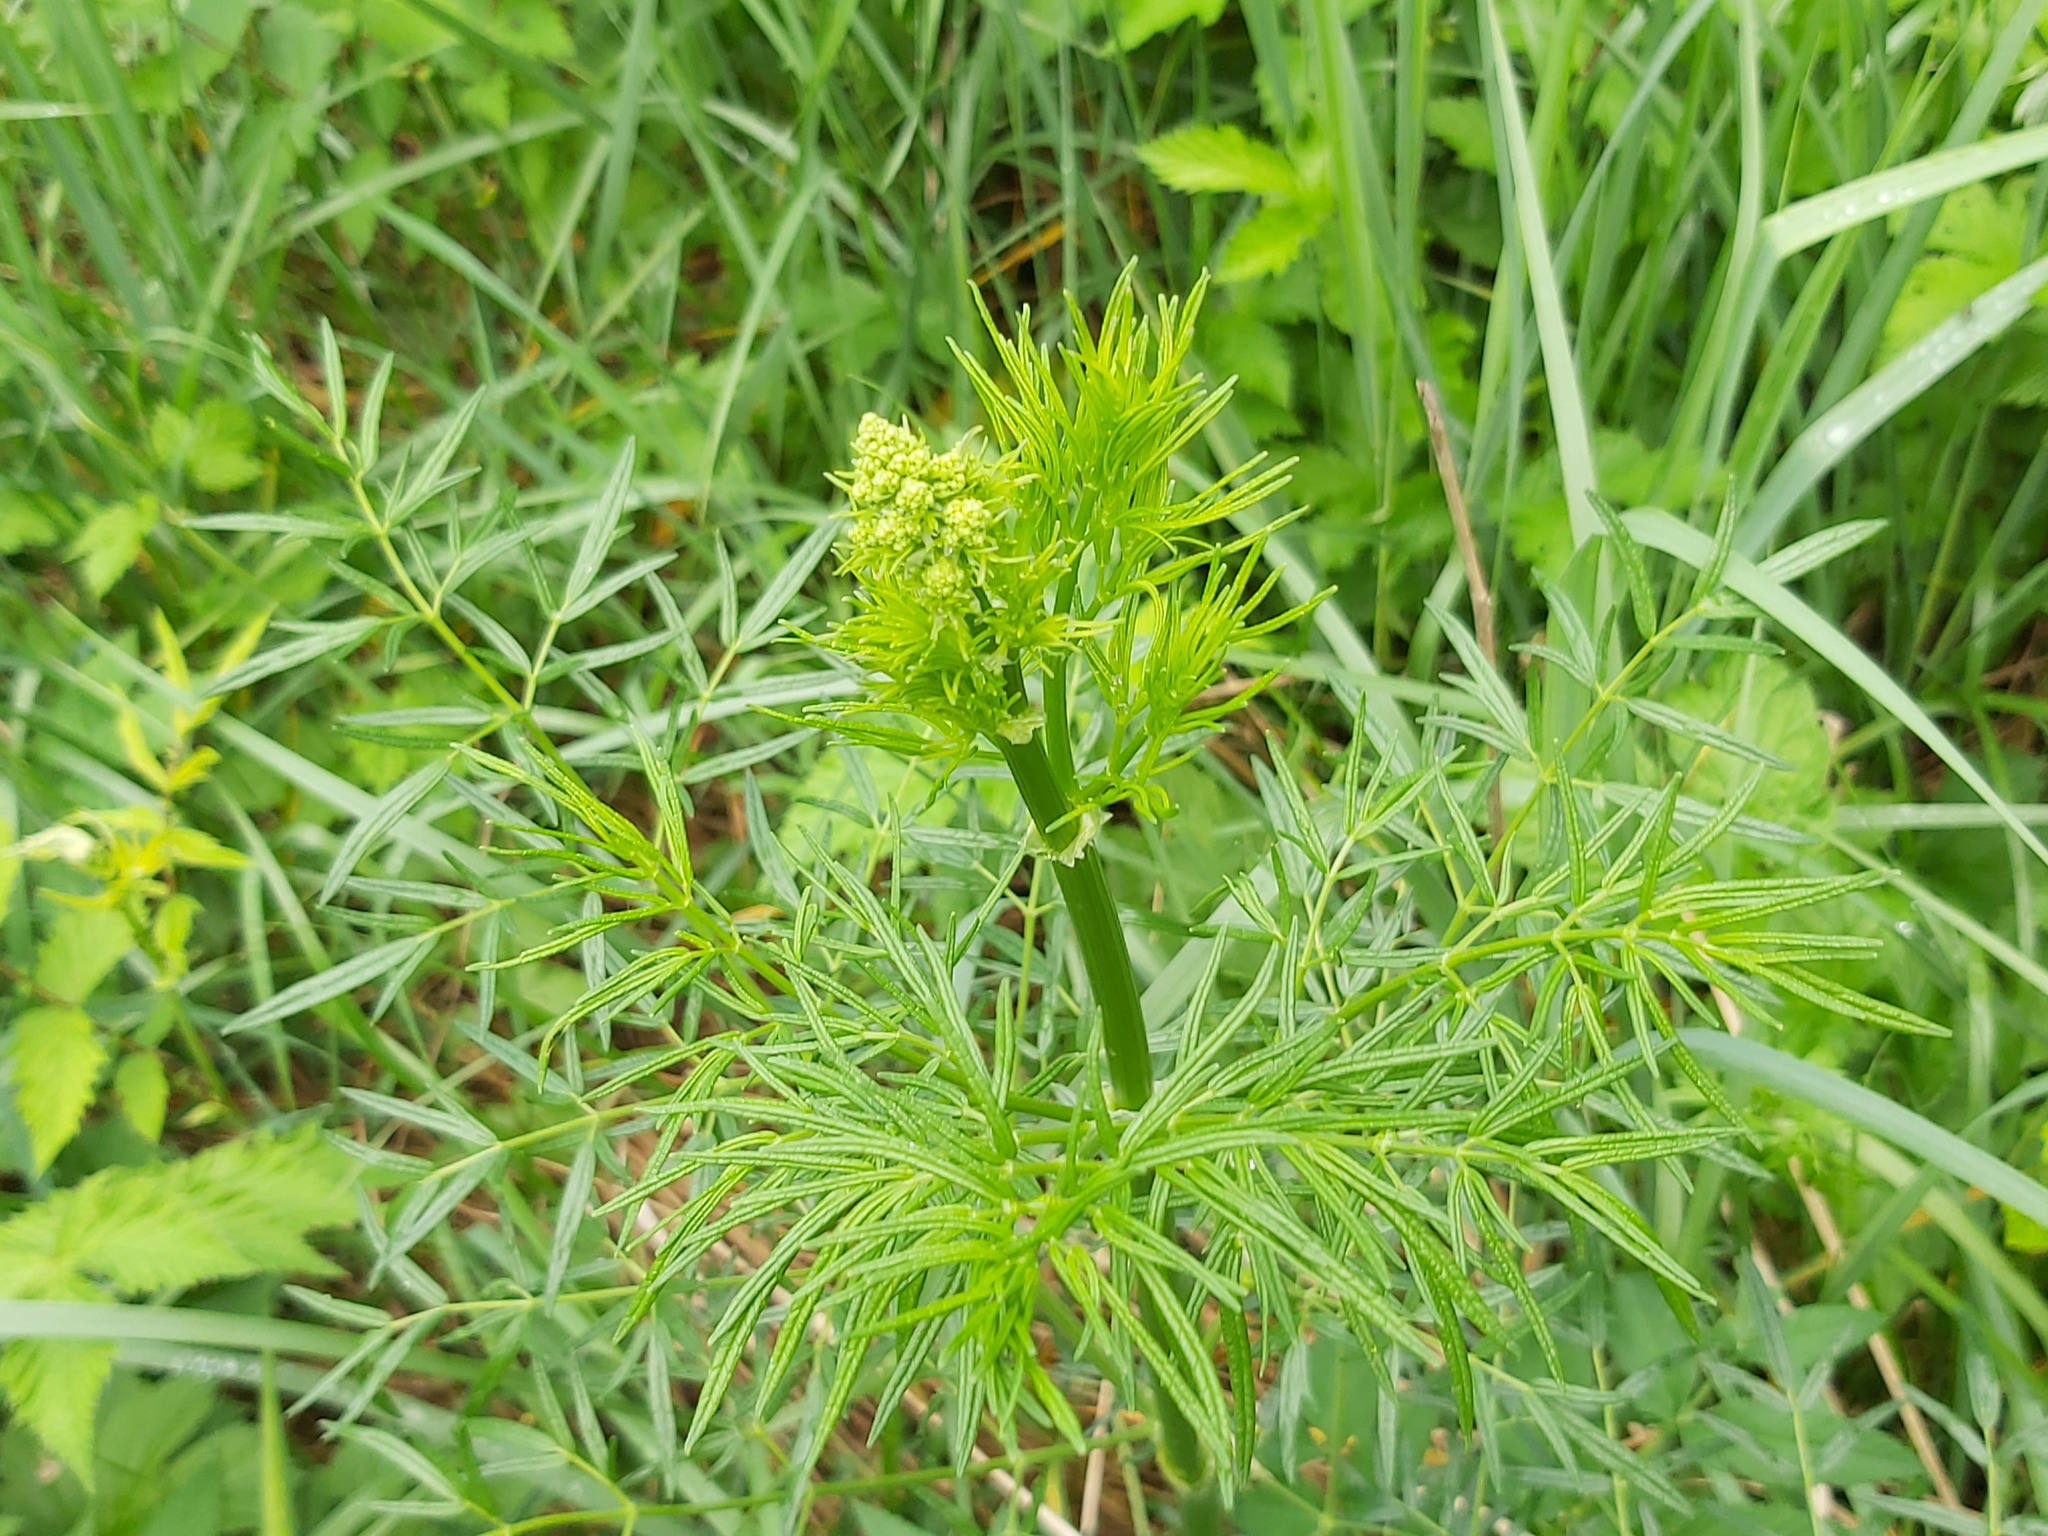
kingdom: Plantae
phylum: Tracheophyta
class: Magnoliopsida
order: Ranunculales
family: Ranunculaceae
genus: Thalictrum
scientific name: Thalictrum lucidum
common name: Shining meadow-rue
